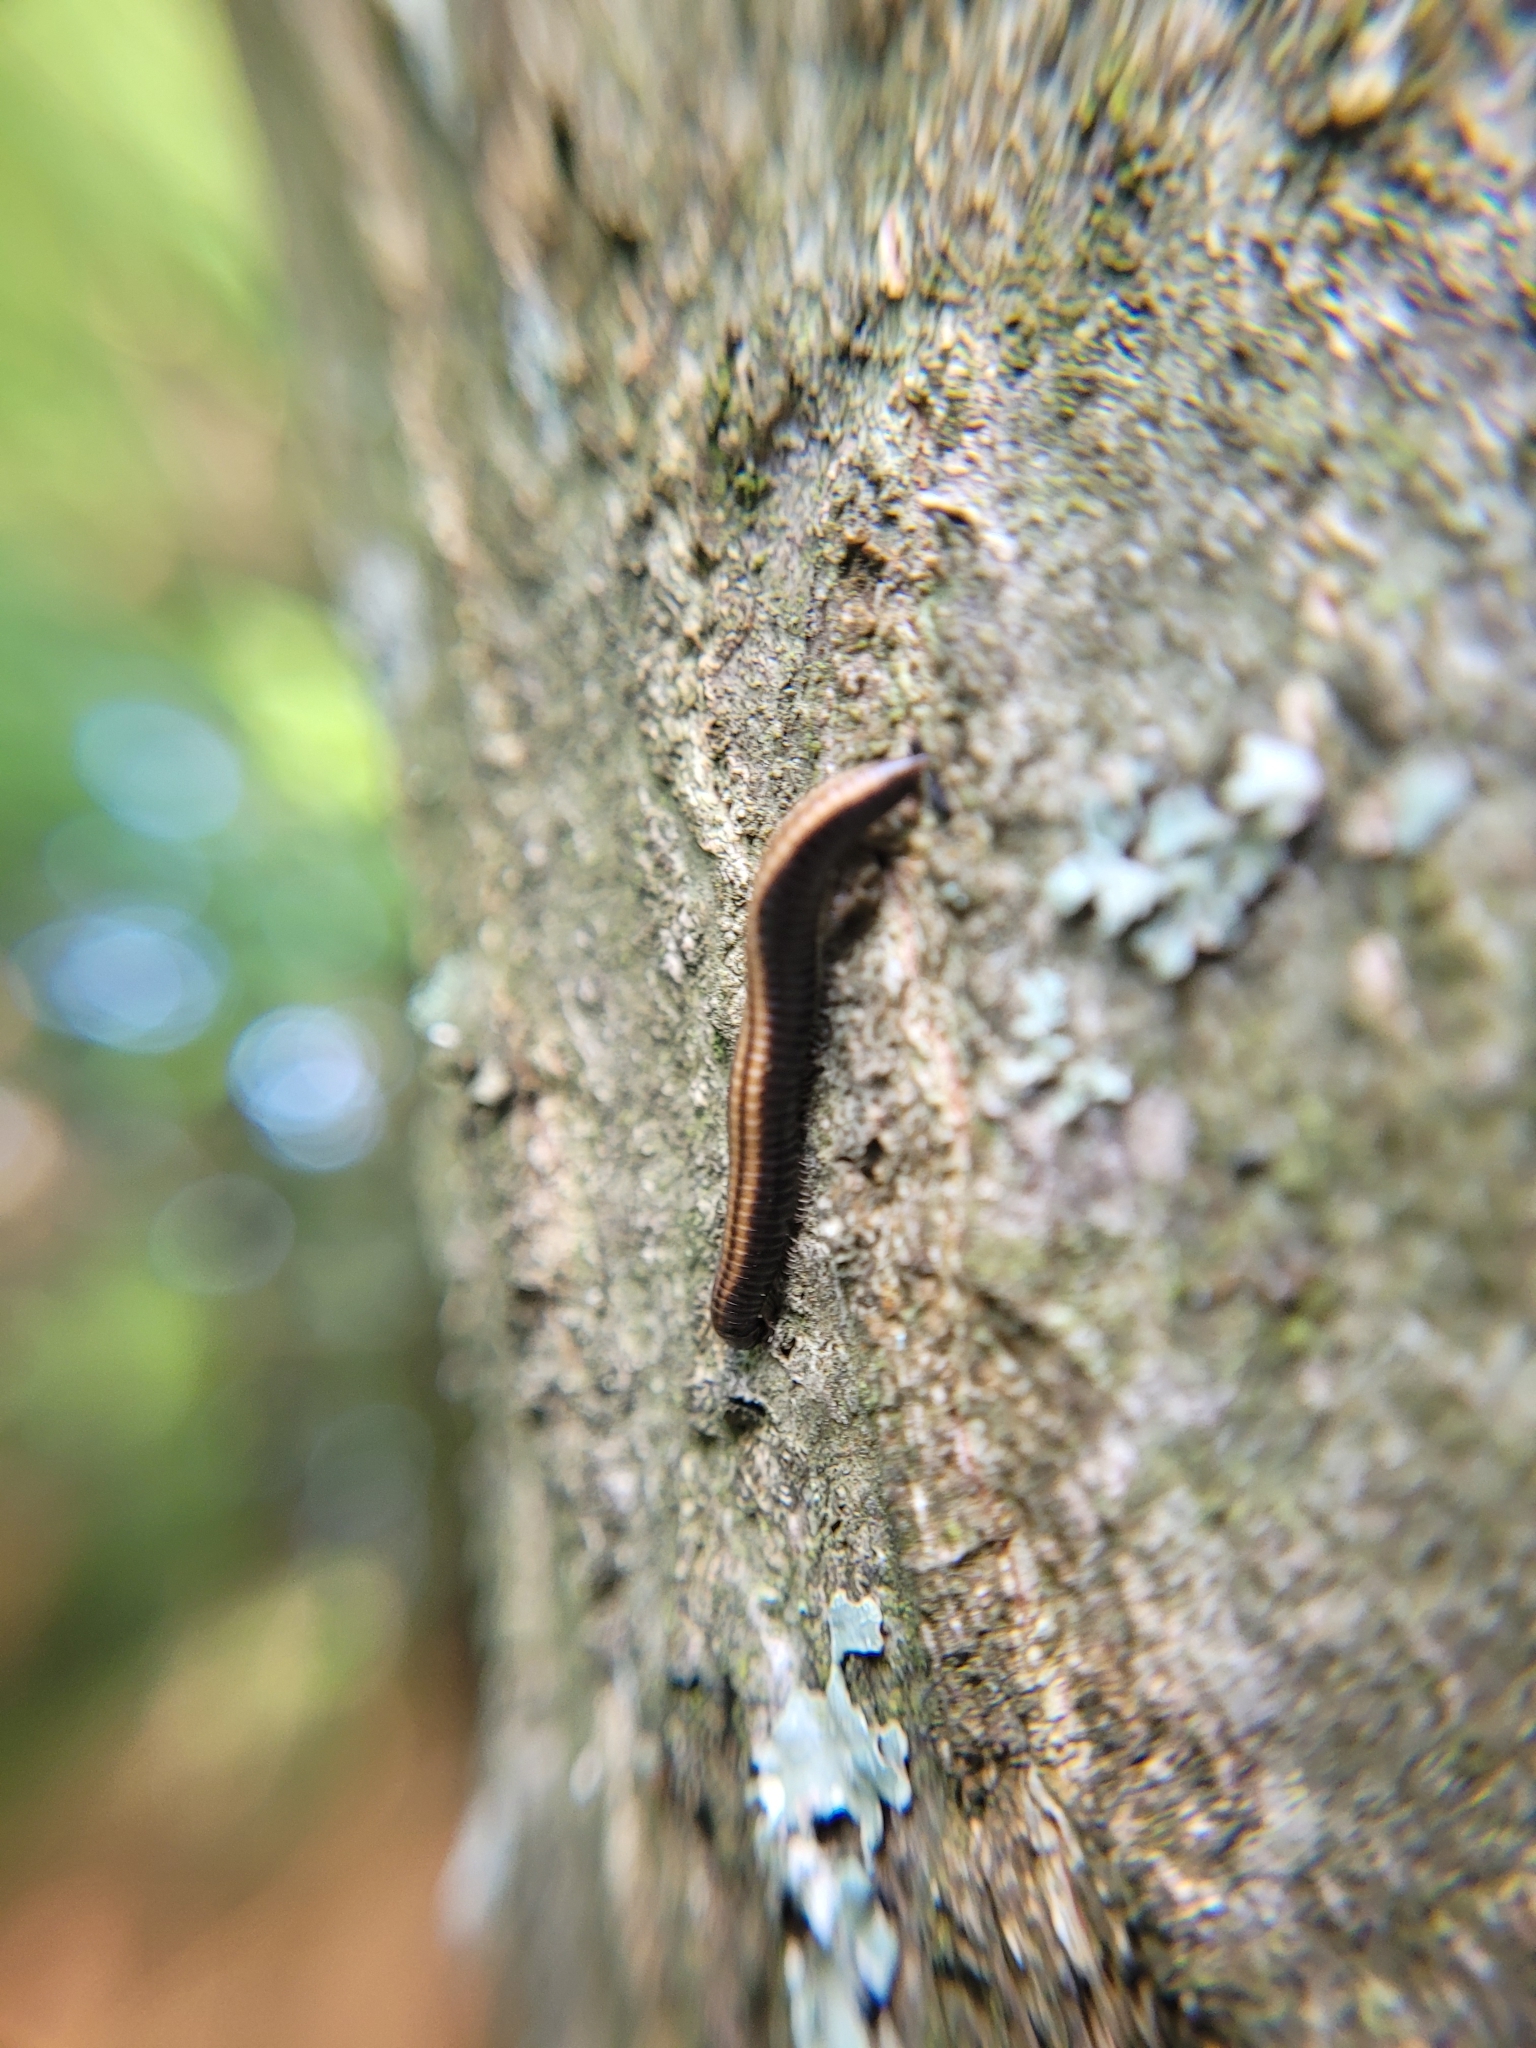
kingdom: Animalia
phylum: Arthropoda
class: Diplopoda
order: Julida
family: Julidae
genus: Ommatoiulus
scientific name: Ommatoiulus sabulosus
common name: Striped millipede
